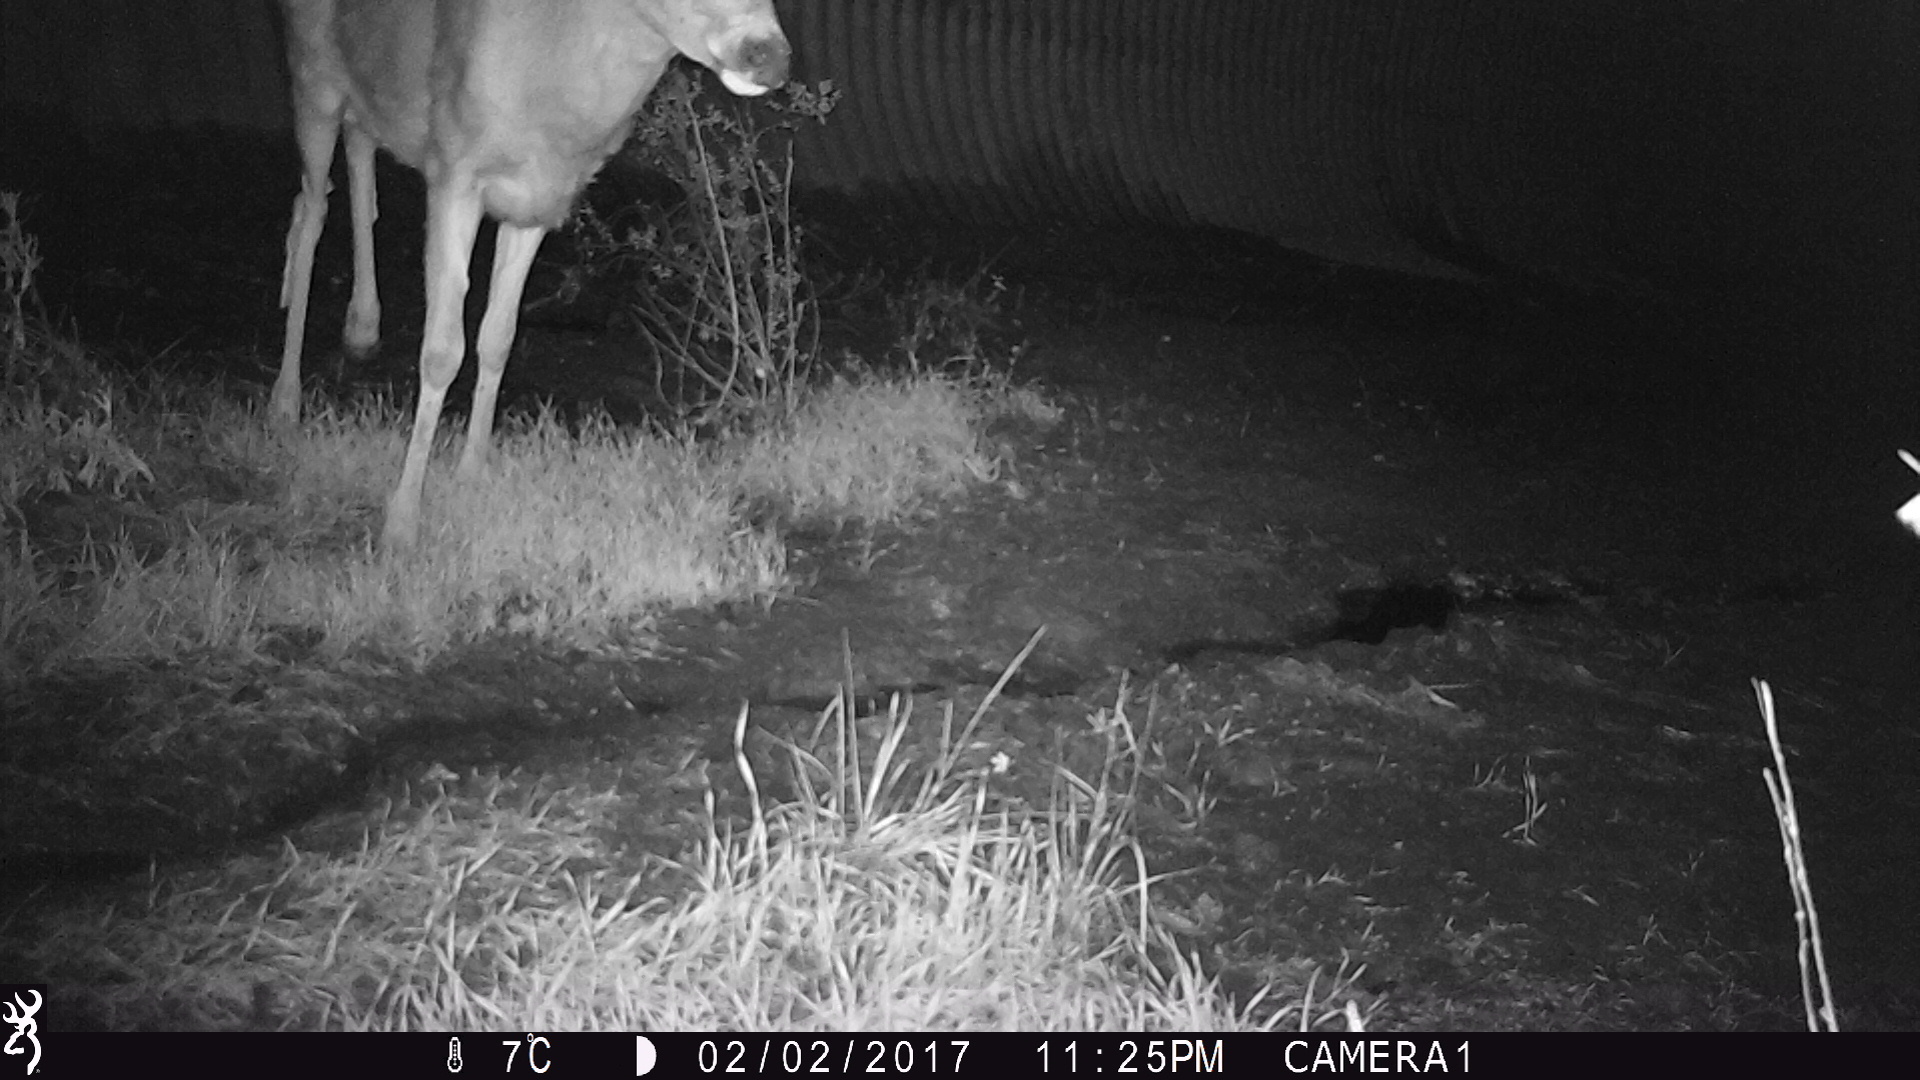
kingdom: Animalia
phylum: Chordata
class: Mammalia
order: Artiodactyla
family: Cervidae
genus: Odocoileus
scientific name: Odocoileus hemionus
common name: Mule deer
